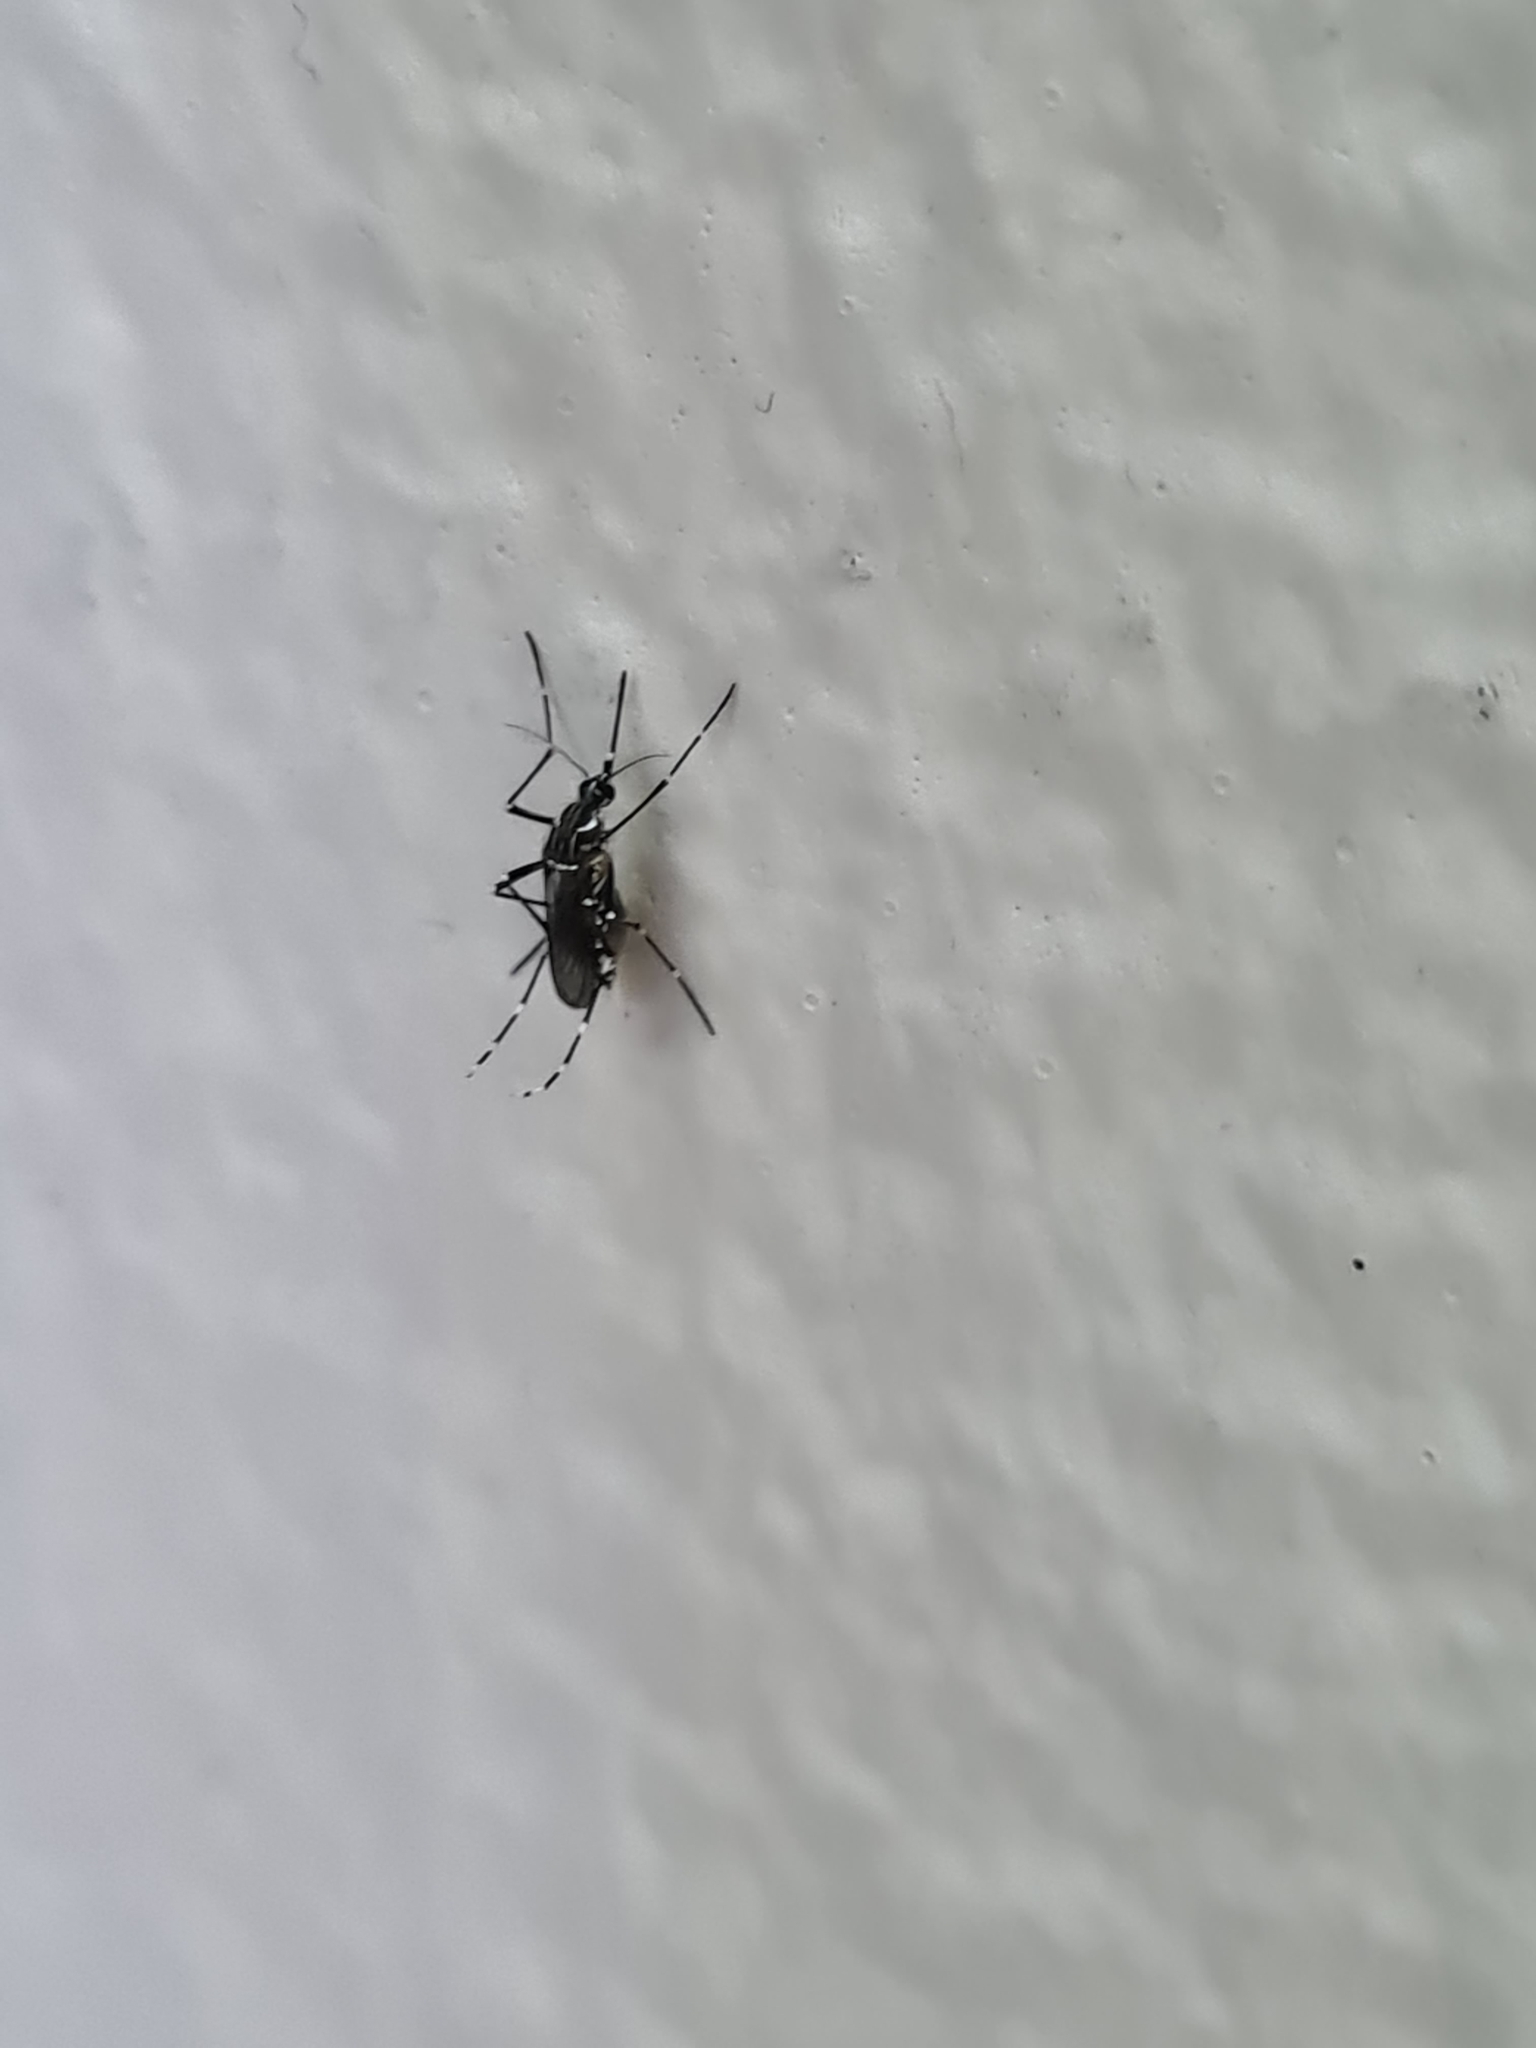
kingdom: Animalia
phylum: Arthropoda
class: Insecta
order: Diptera
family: Culicidae
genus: Aedes
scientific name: Aedes aegypti
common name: Yellow fever mosquito
